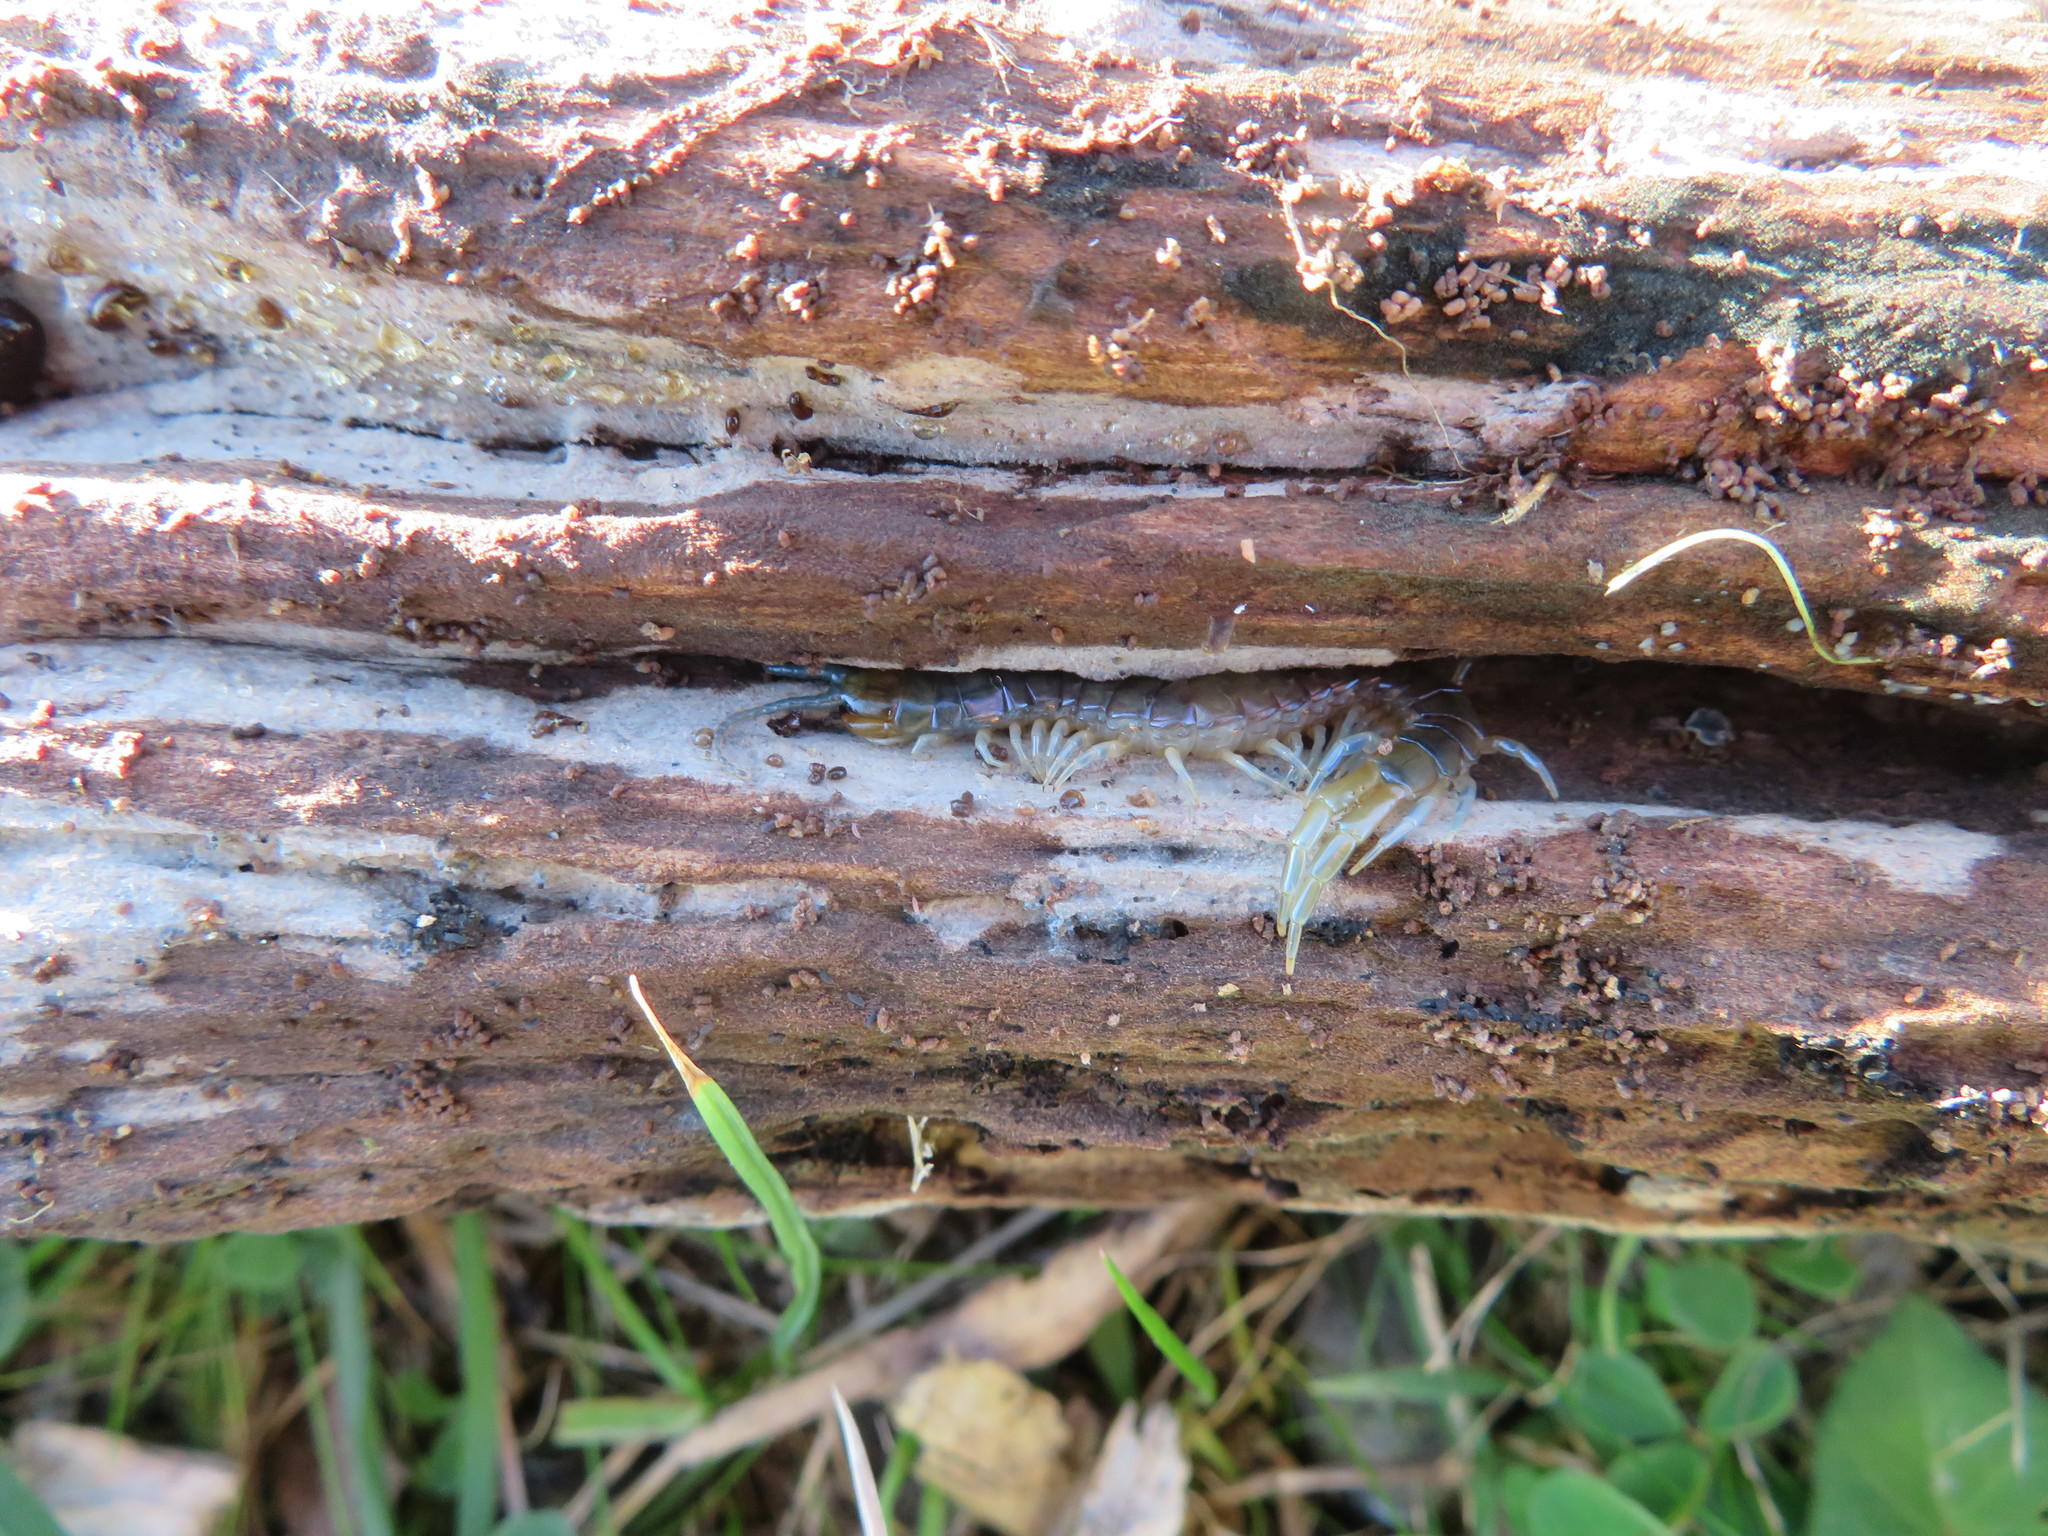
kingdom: Animalia
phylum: Arthropoda
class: Chilopoda
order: Scolopendromorpha
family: Scolopendridae
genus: Cormocephalus
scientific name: Cormocephalus rubriceps
